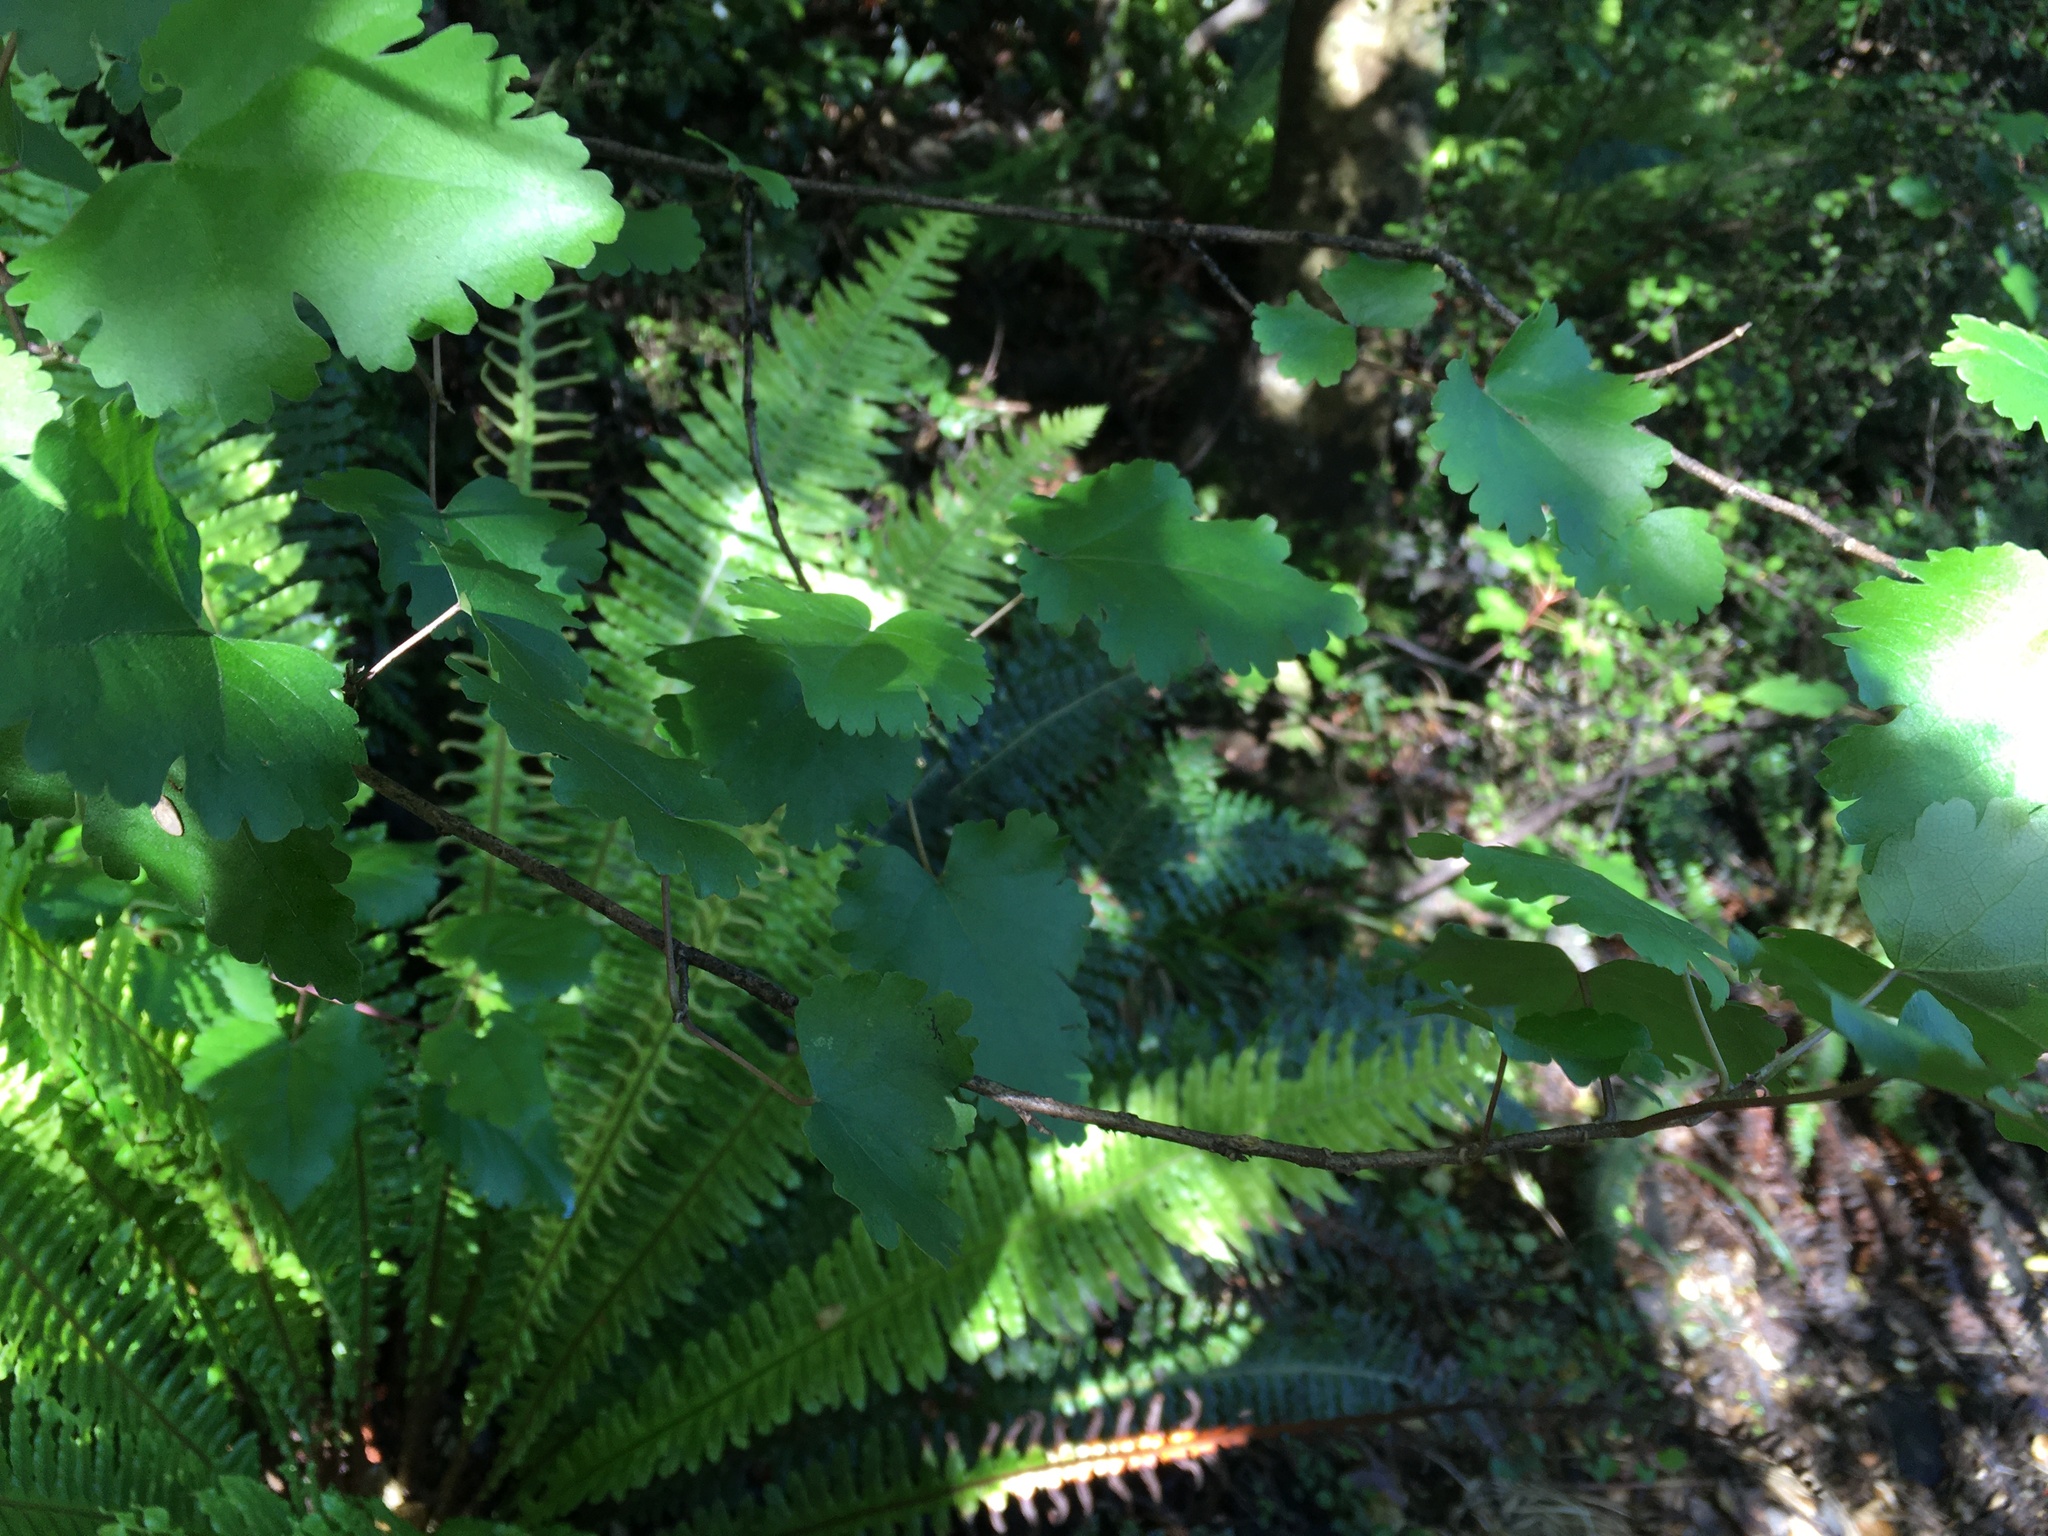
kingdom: Plantae
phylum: Tracheophyta
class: Magnoliopsida
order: Malvales
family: Malvaceae
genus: Hoheria
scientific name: Hoheria glabrata
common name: Mountain-ribbon
